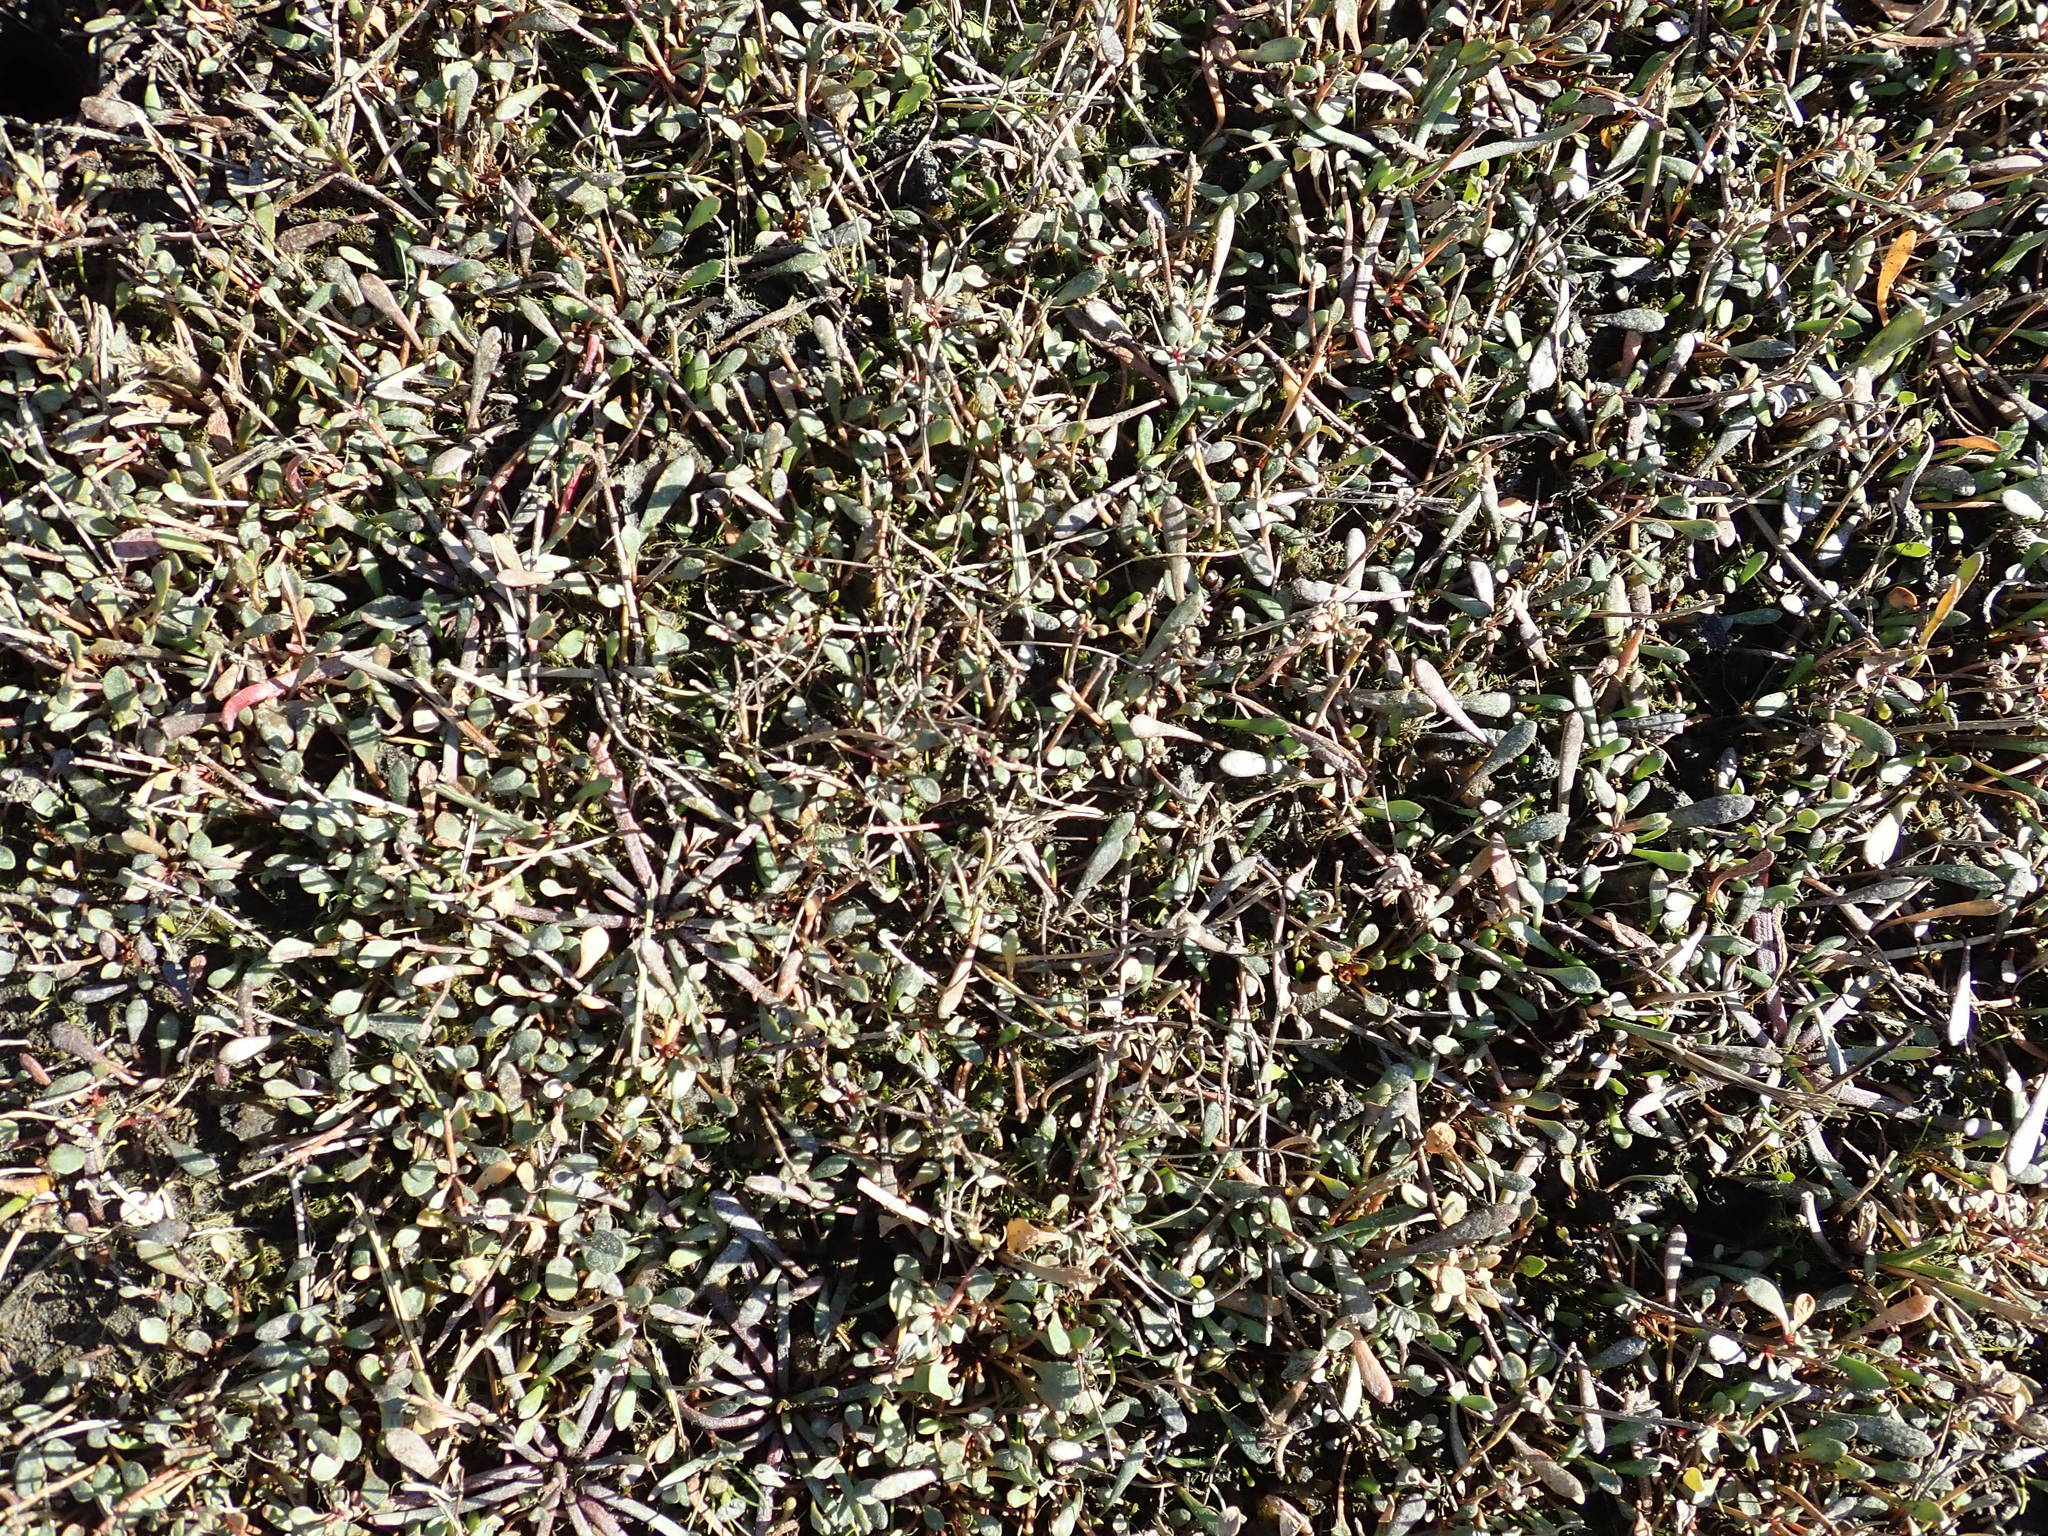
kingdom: Plantae
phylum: Tracheophyta
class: Magnoliopsida
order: Asterales
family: Goodeniaceae
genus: Goodenia
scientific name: Goodenia radicans
